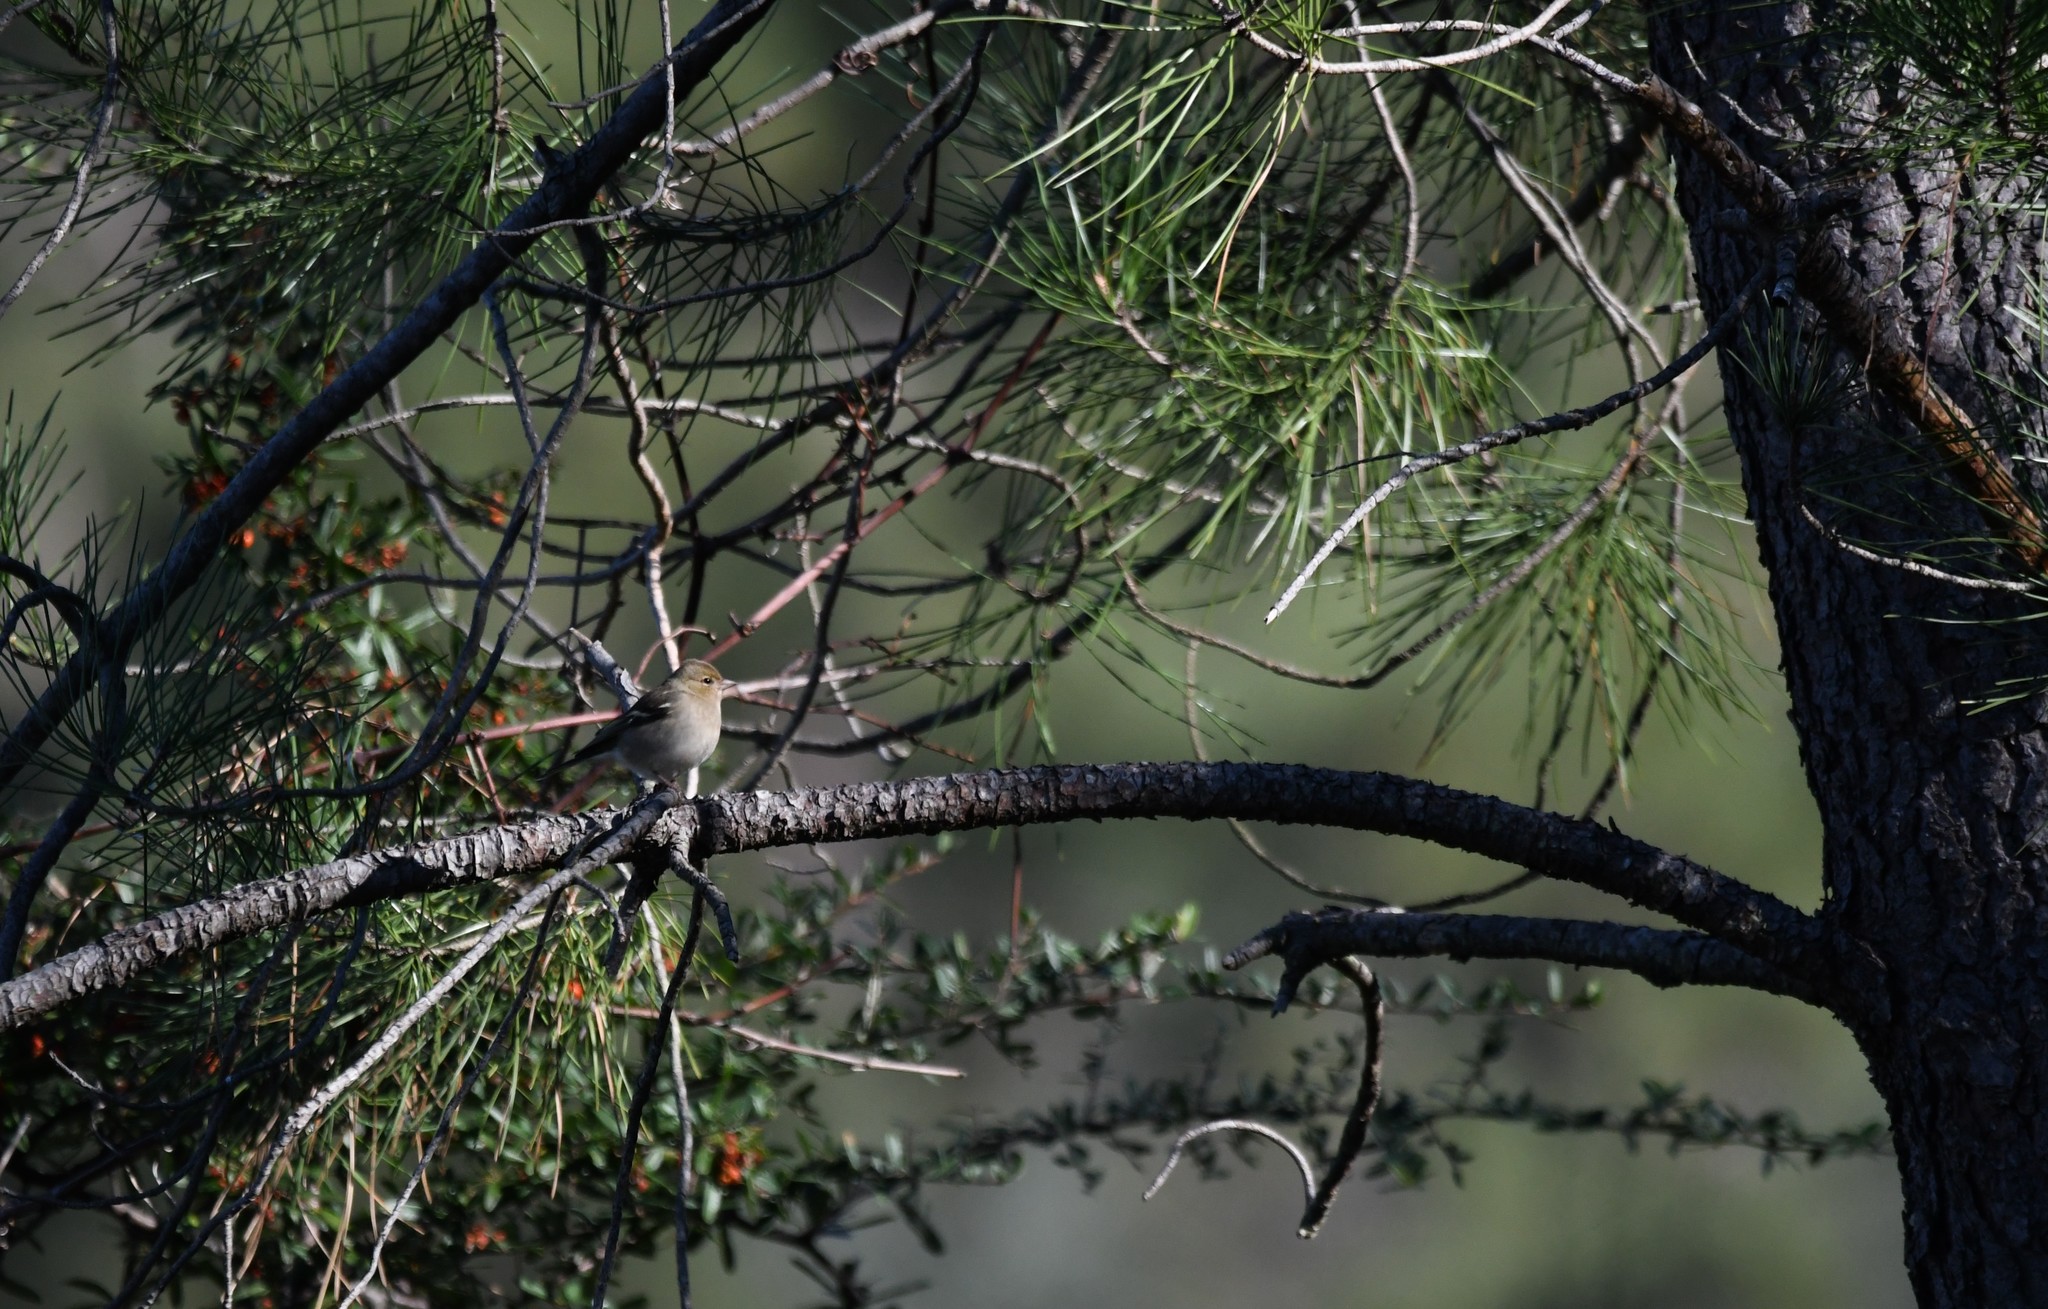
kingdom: Animalia
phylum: Chordata
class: Aves
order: Passeriformes
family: Fringillidae
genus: Fringilla
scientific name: Fringilla coelebs
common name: Common chaffinch
